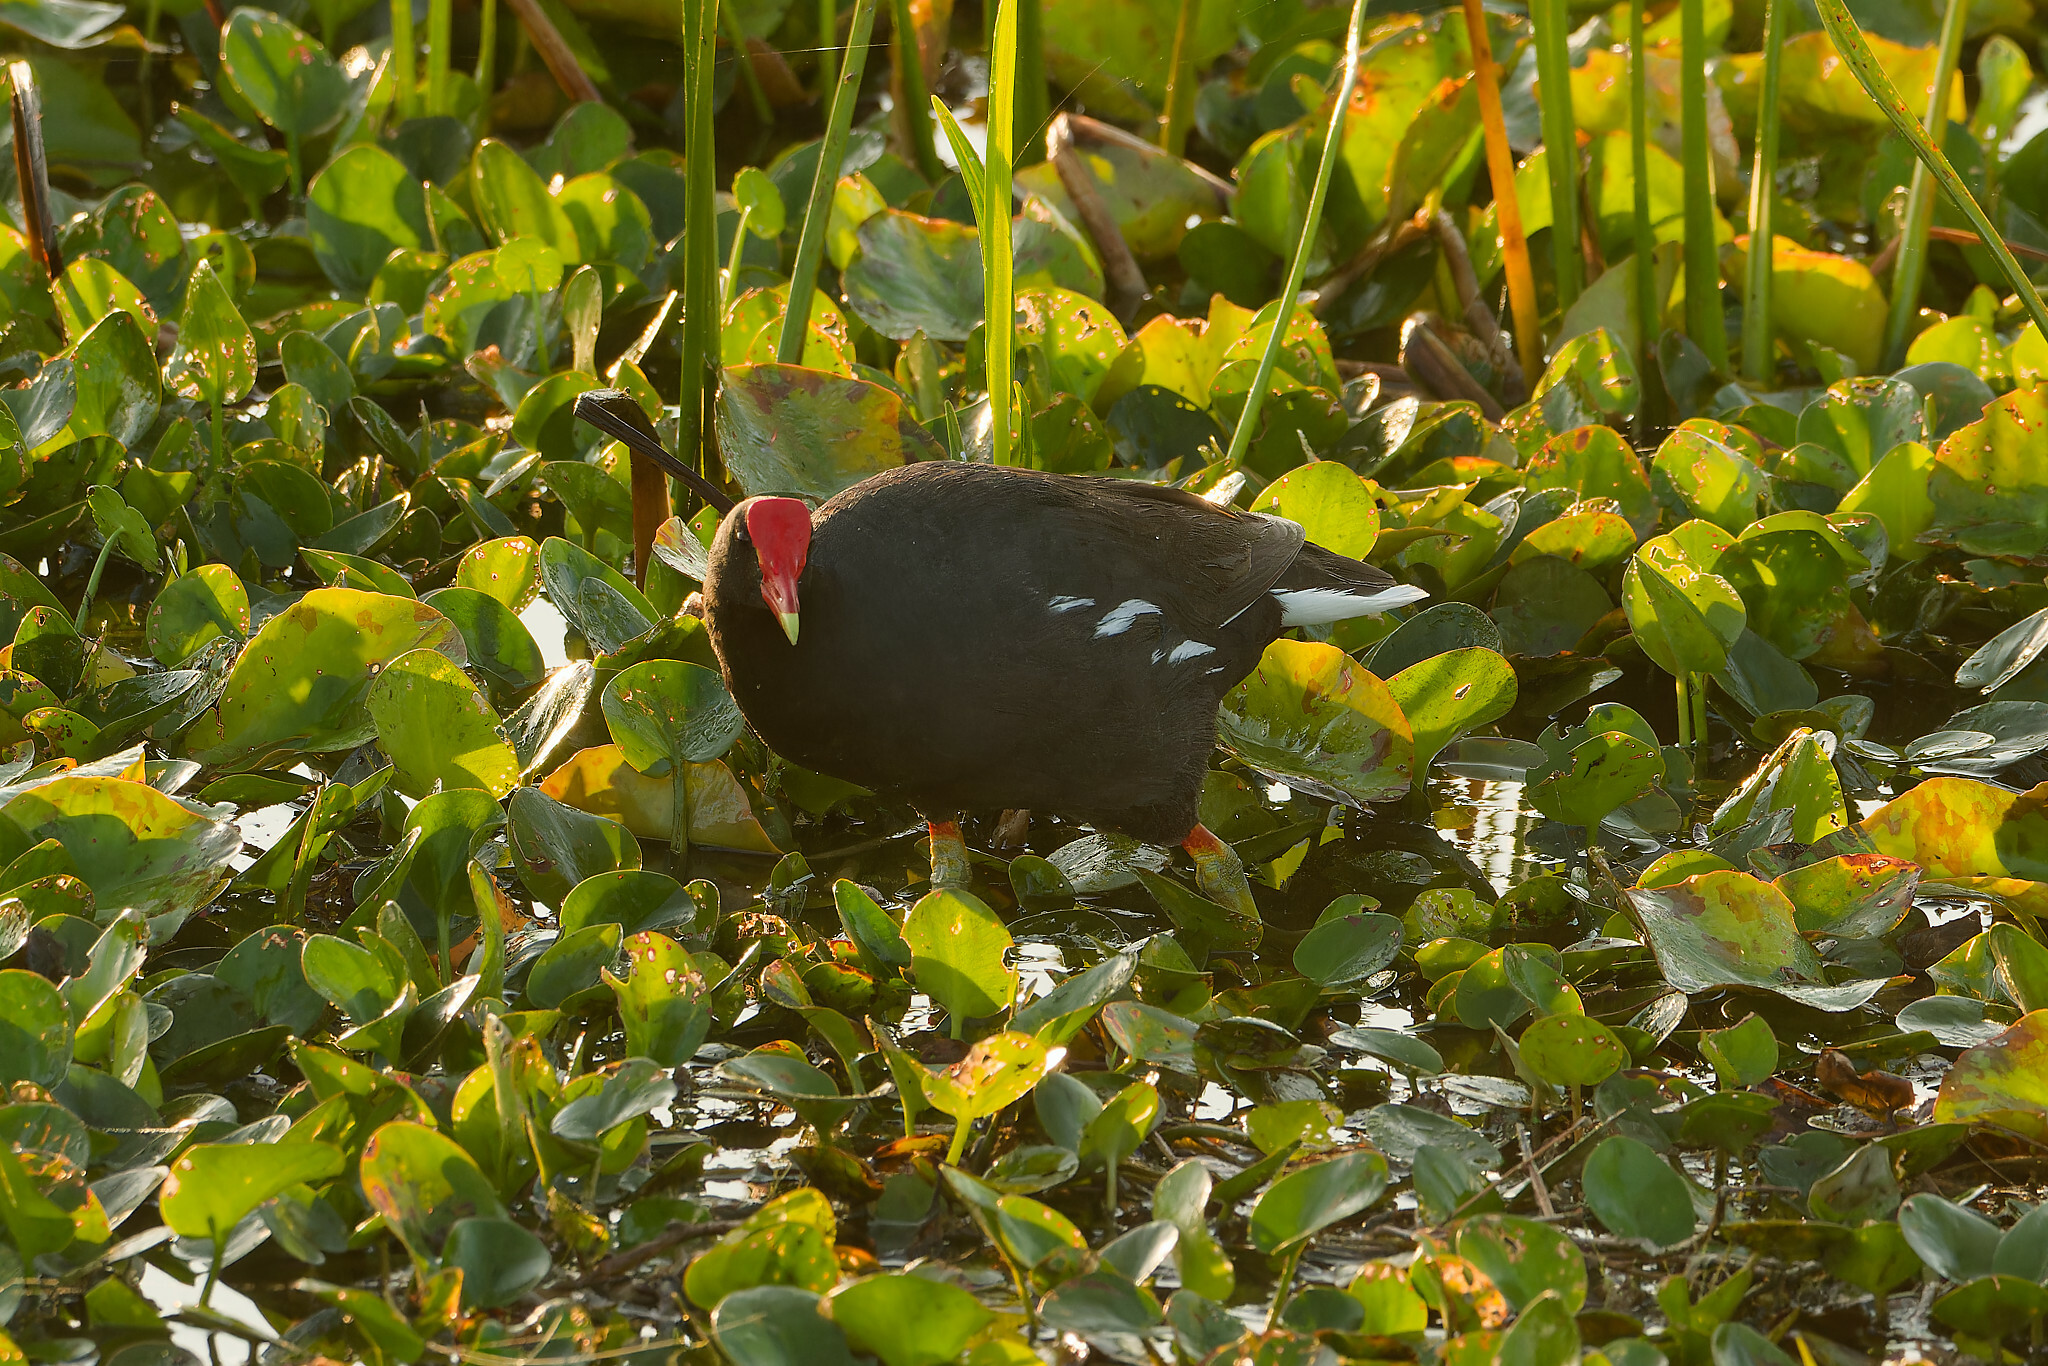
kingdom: Animalia
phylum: Chordata
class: Aves
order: Gruiformes
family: Rallidae
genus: Gallinula
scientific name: Gallinula chloropus
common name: Common moorhen
